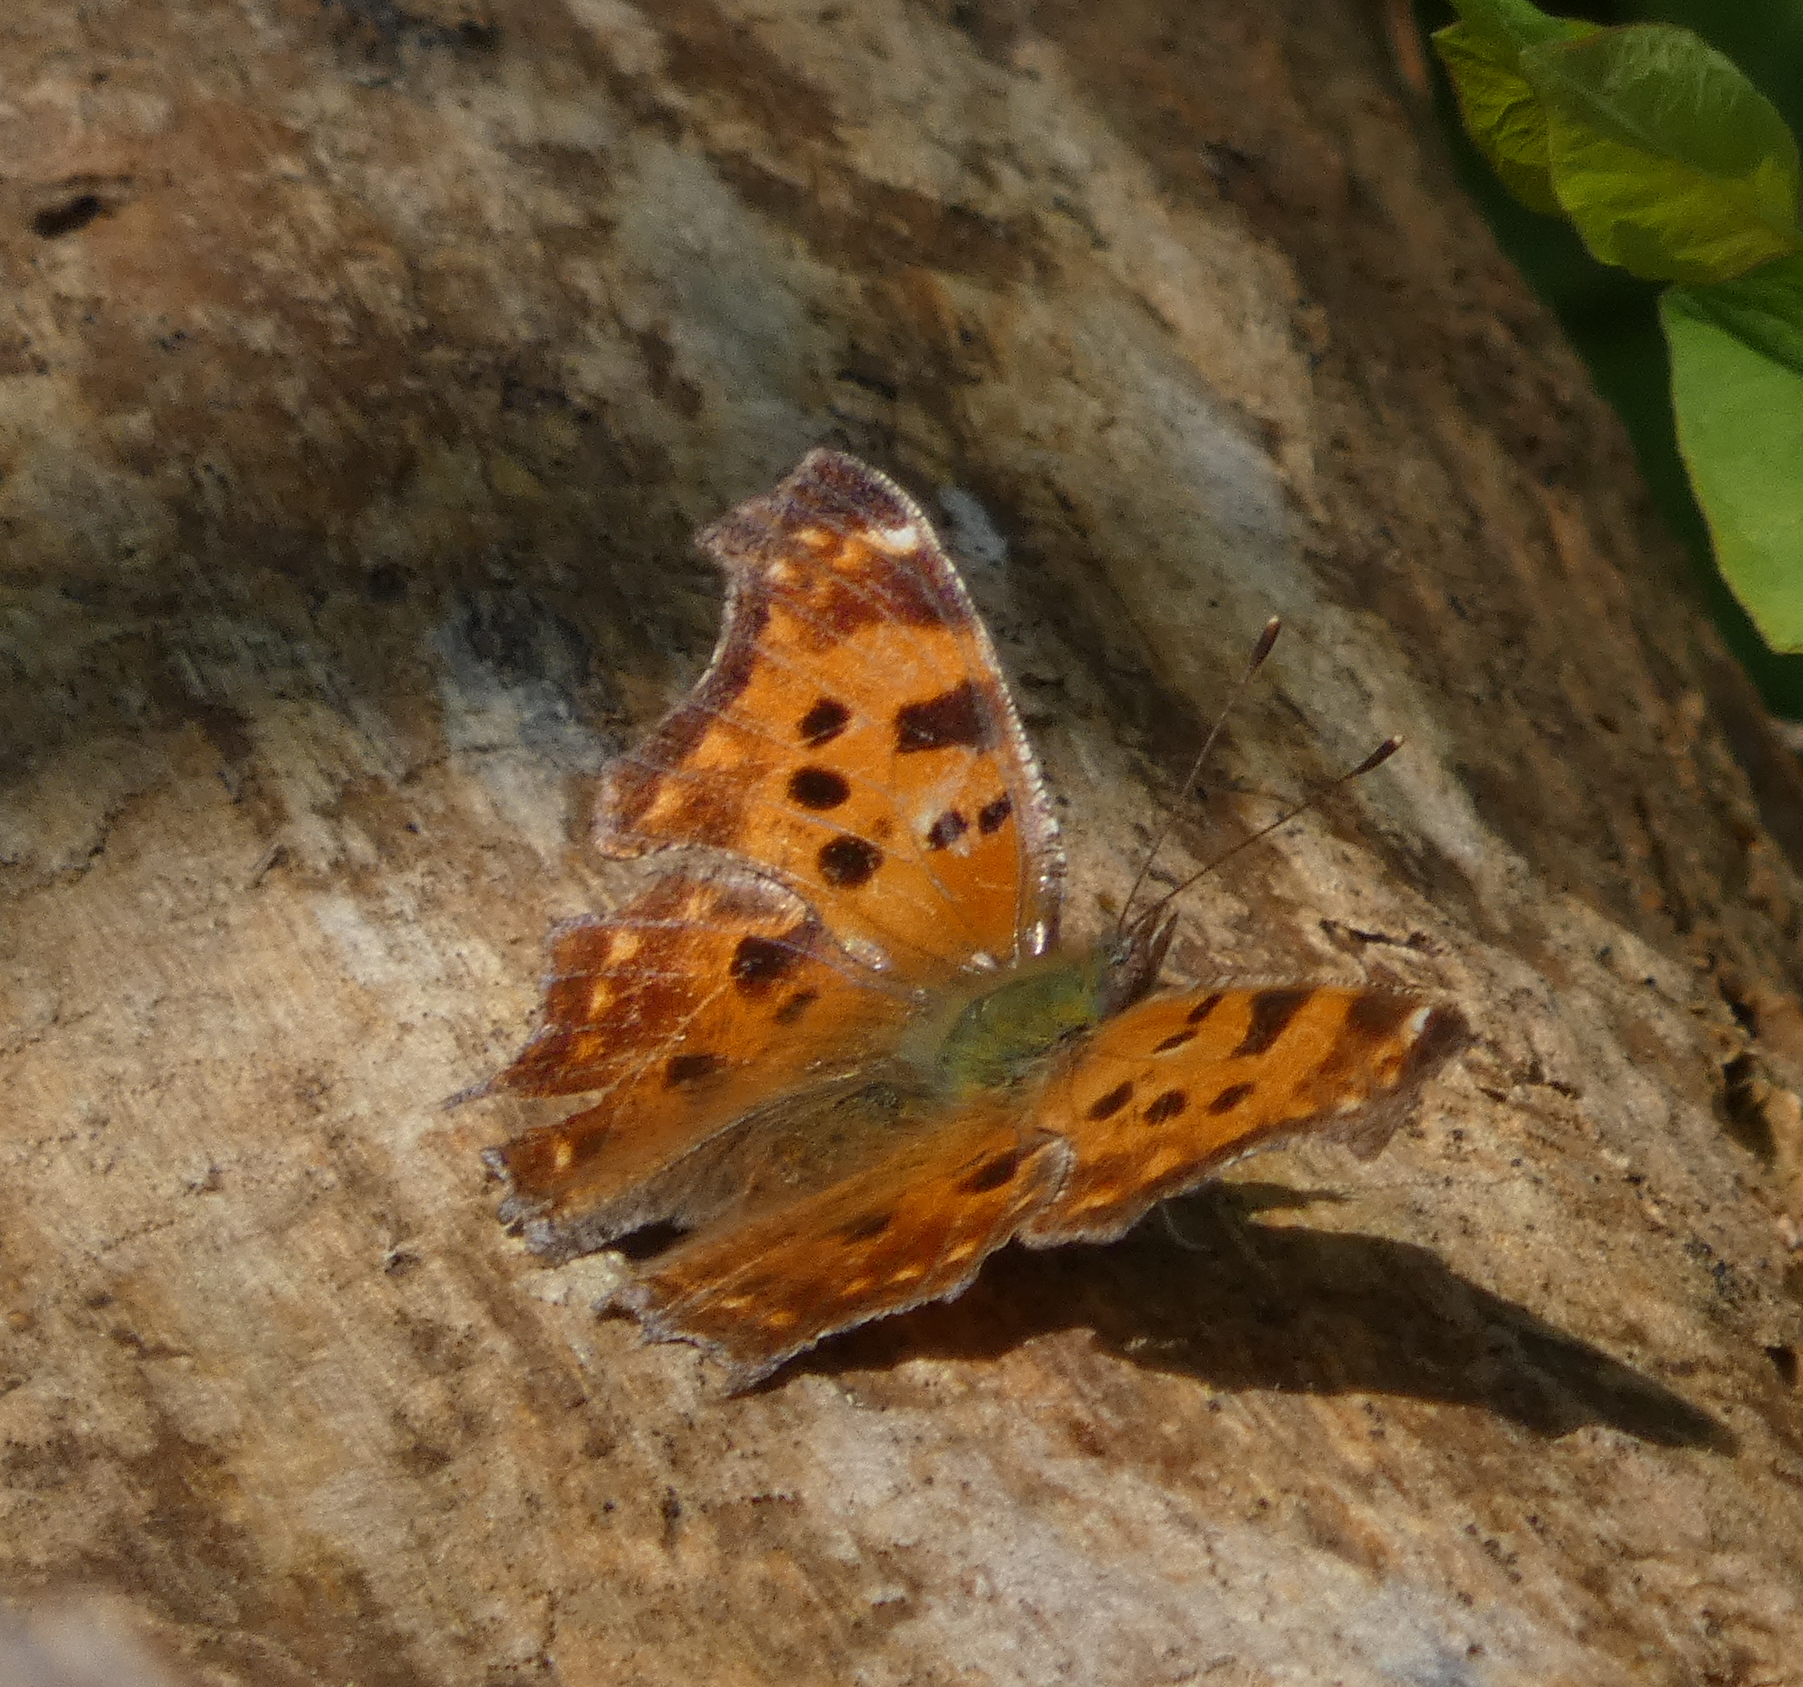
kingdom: Animalia
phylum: Arthropoda
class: Insecta
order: Lepidoptera
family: Nymphalidae
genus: Polygonia
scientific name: Polygonia comma
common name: Eastern comma
